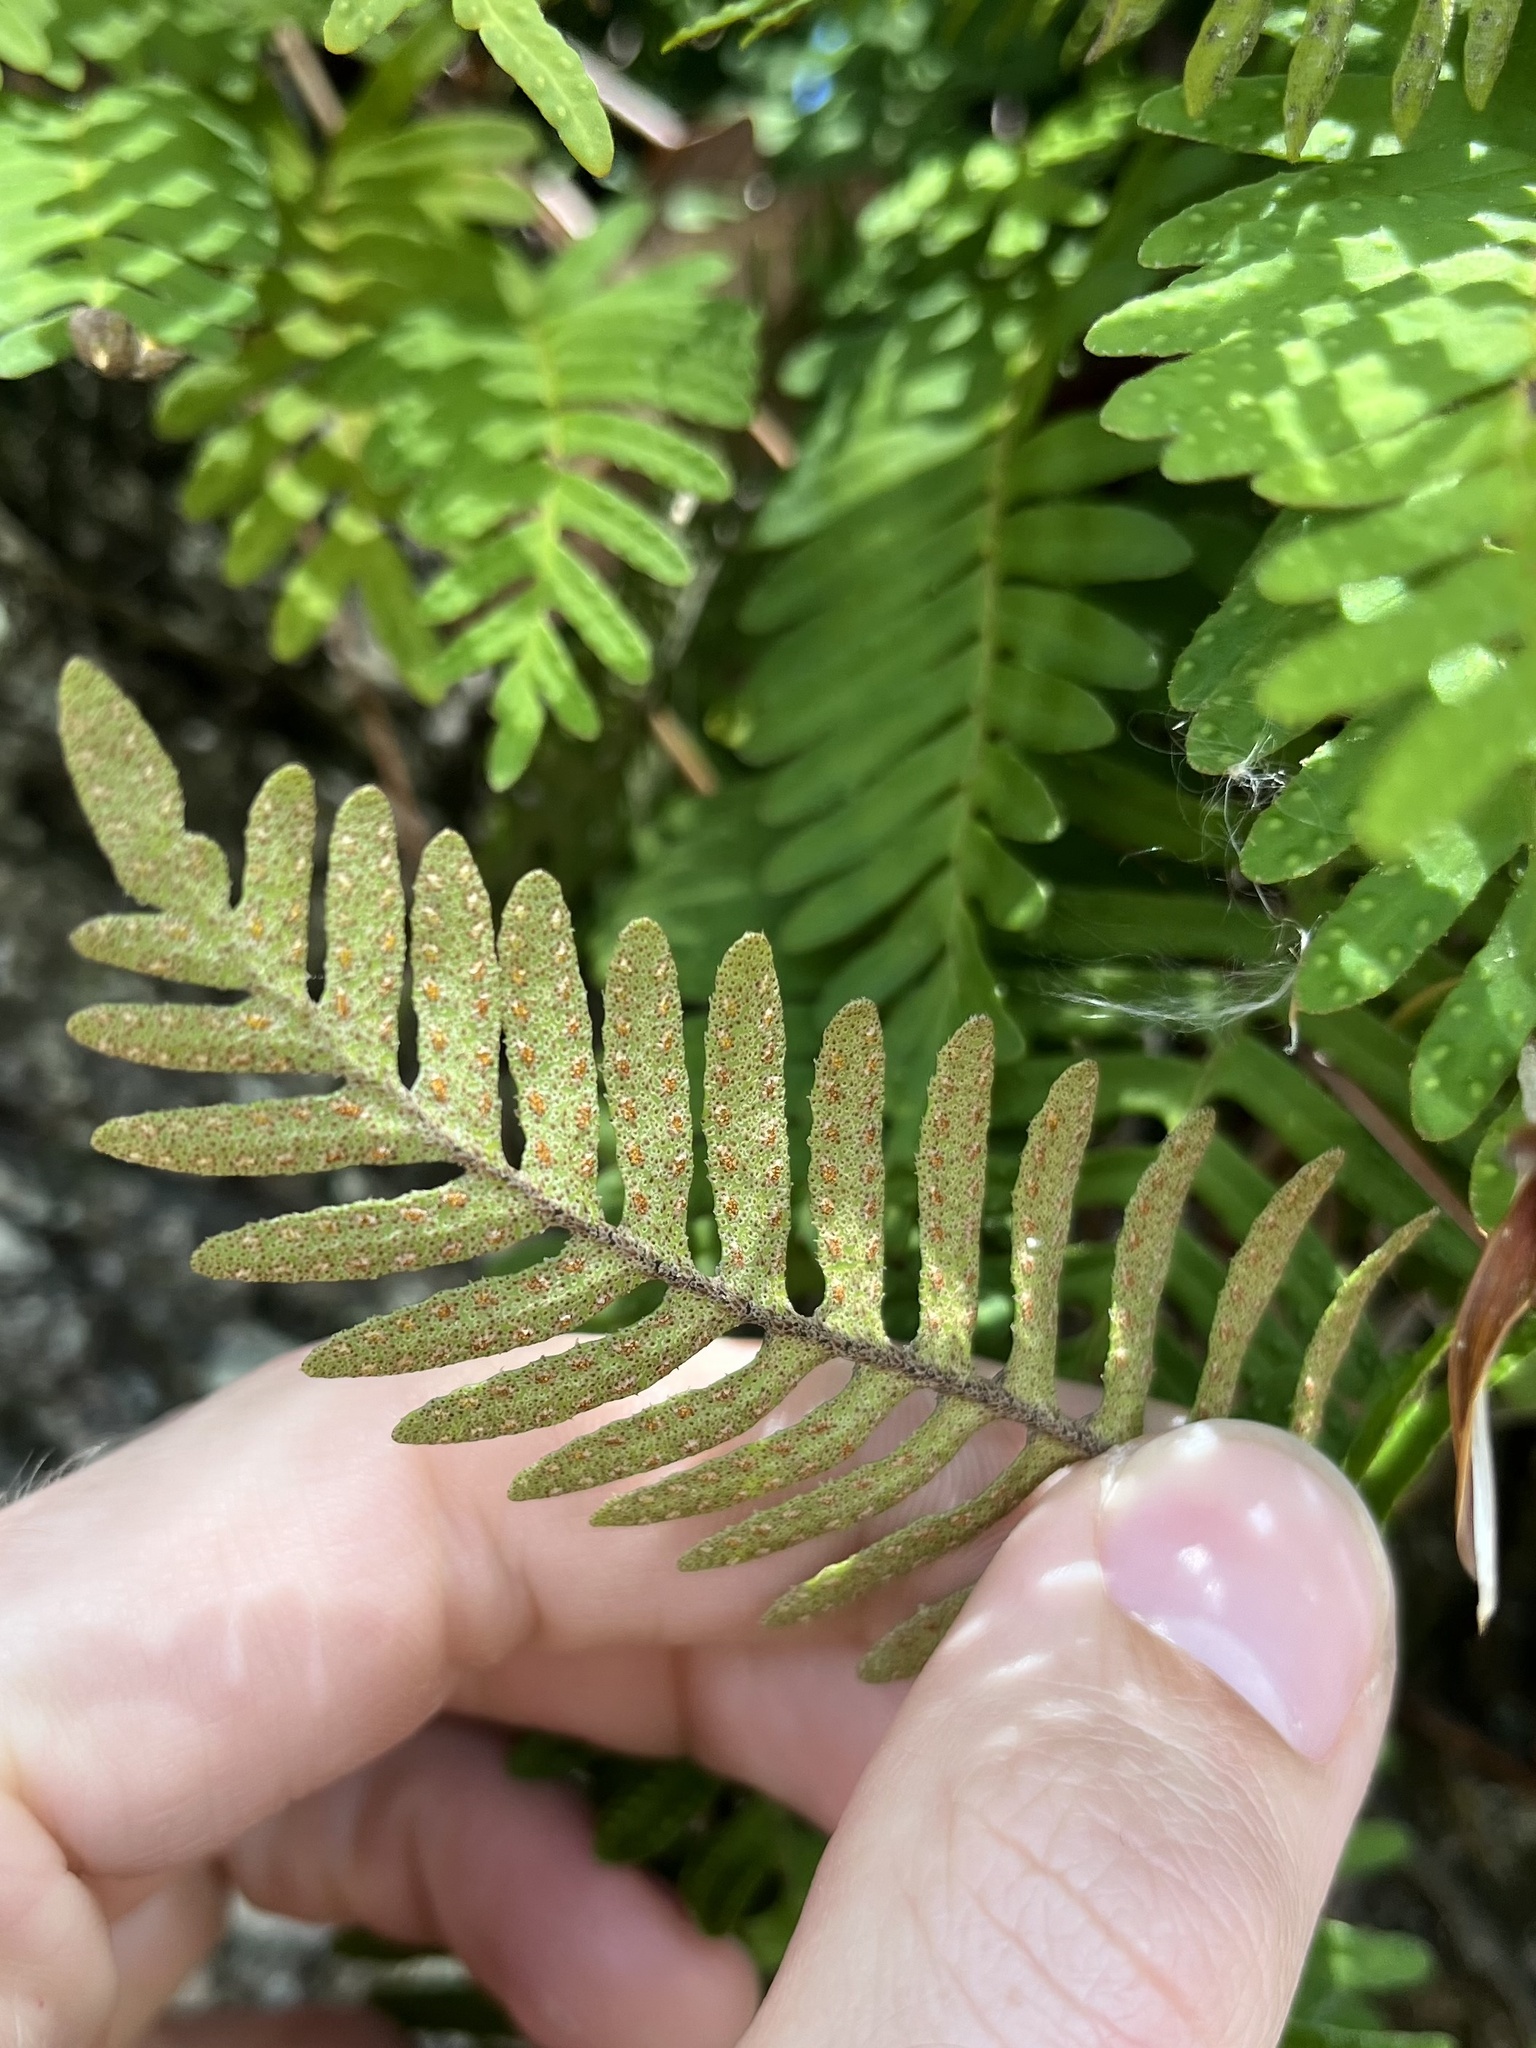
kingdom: Plantae
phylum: Tracheophyta
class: Polypodiopsida
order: Polypodiales
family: Polypodiaceae
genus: Pleopeltis
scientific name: Pleopeltis michauxiana
